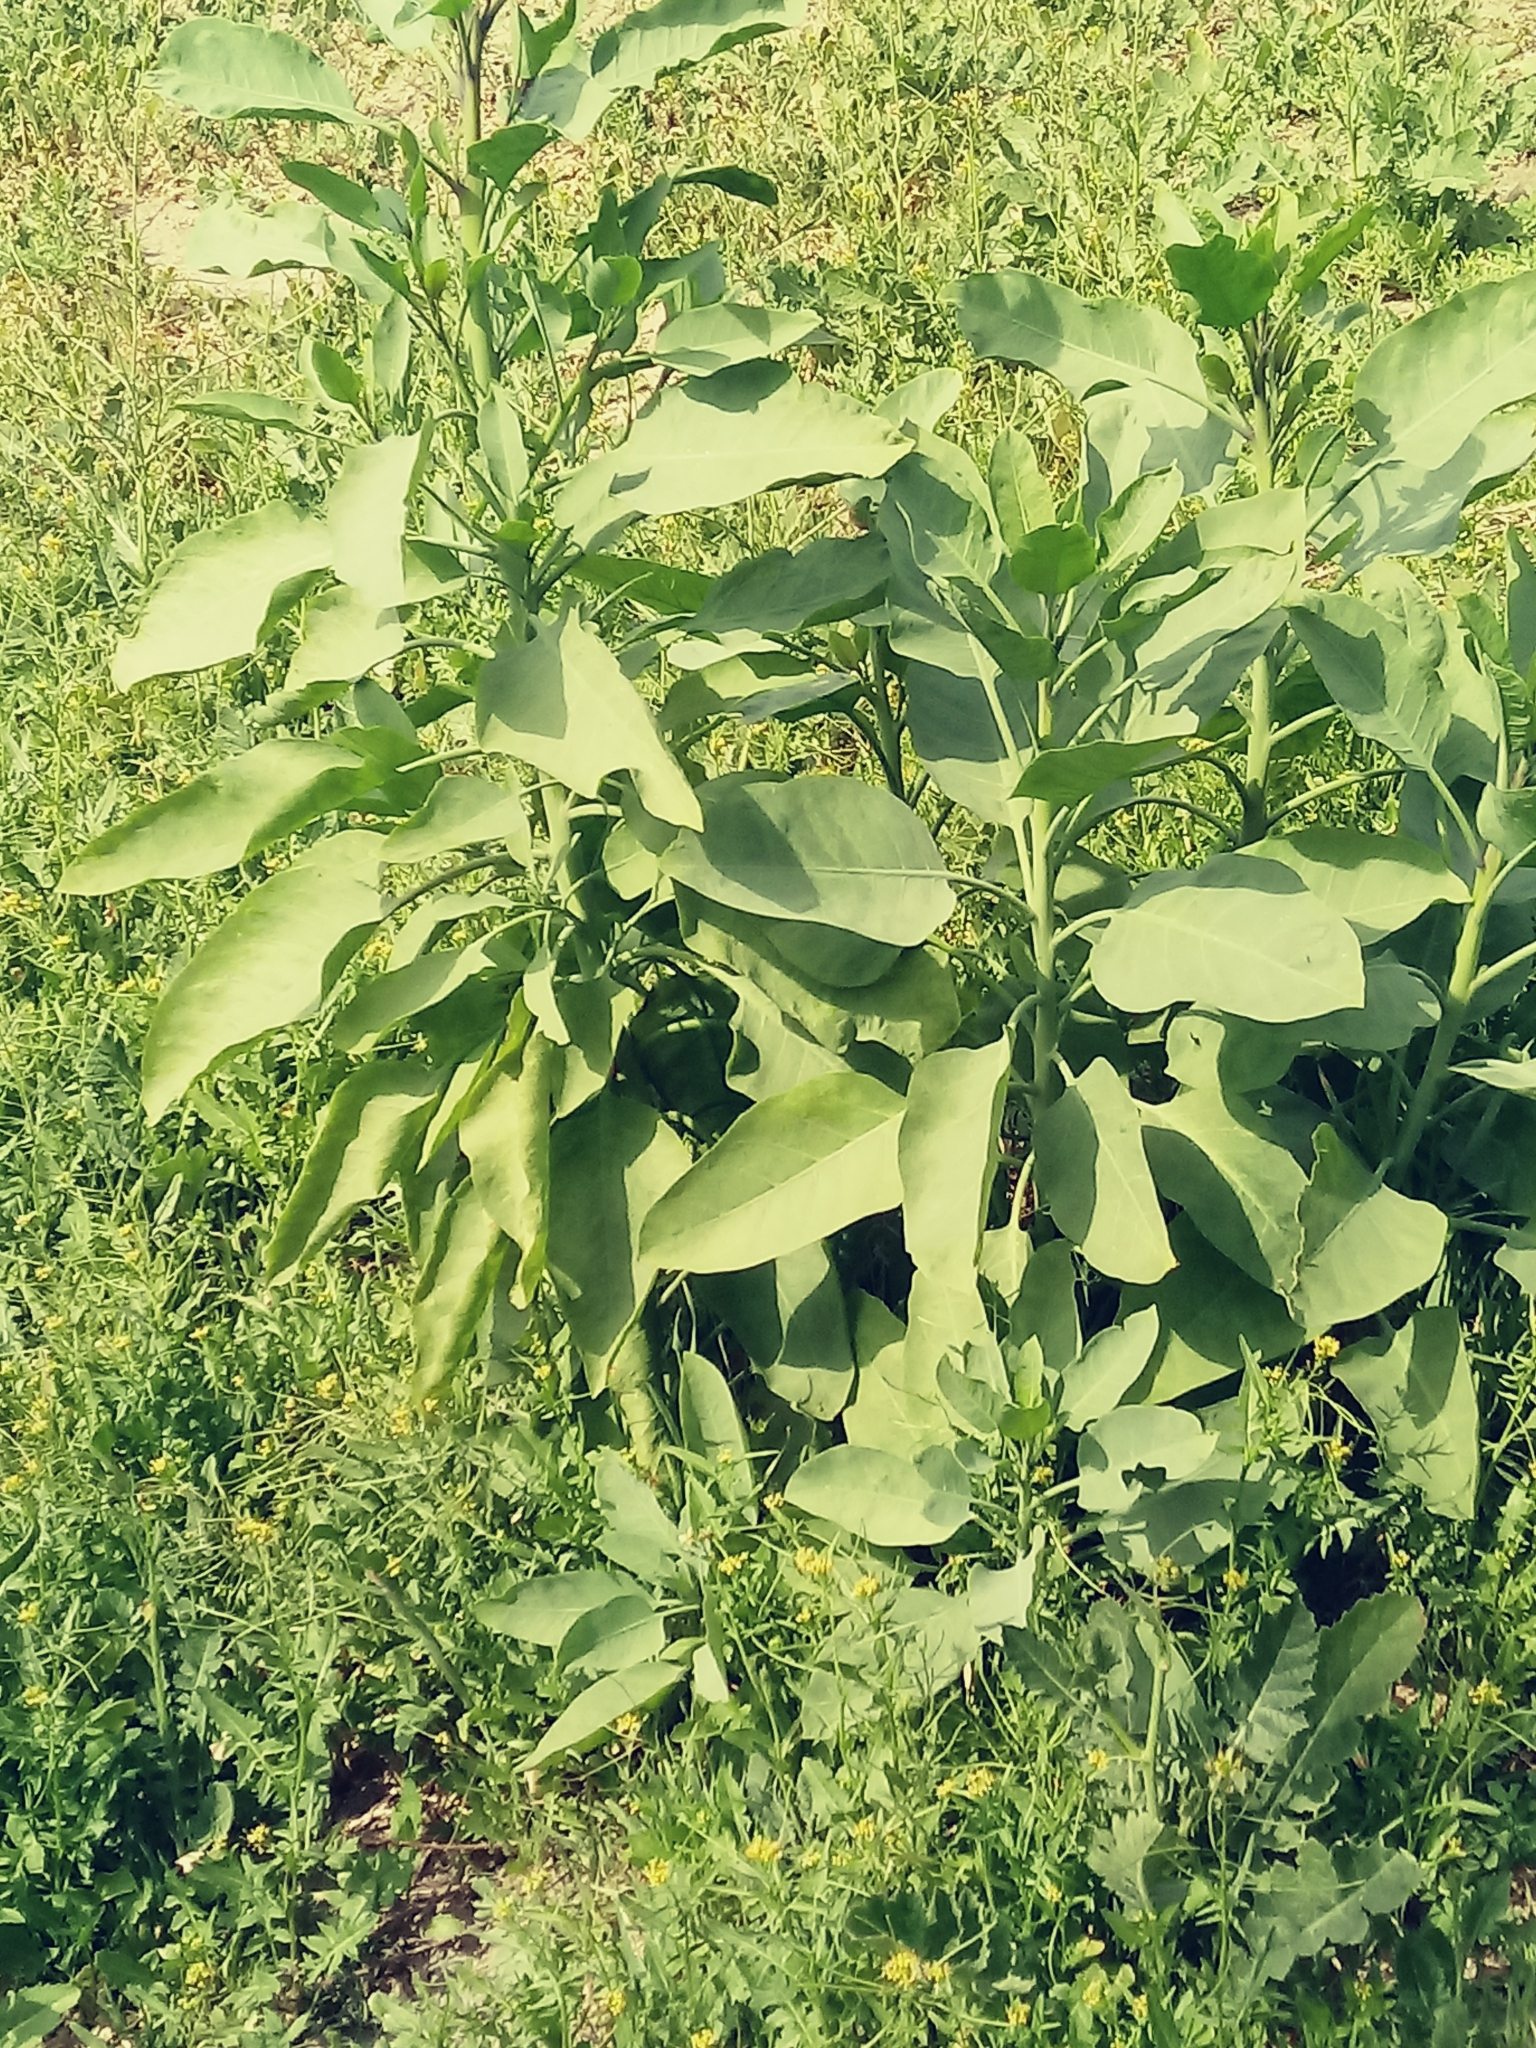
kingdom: Plantae
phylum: Tracheophyta
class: Magnoliopsida
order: Solanales
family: Solanaceae
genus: Nicotiana
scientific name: Nicotiana glauca
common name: Tree tobacco
